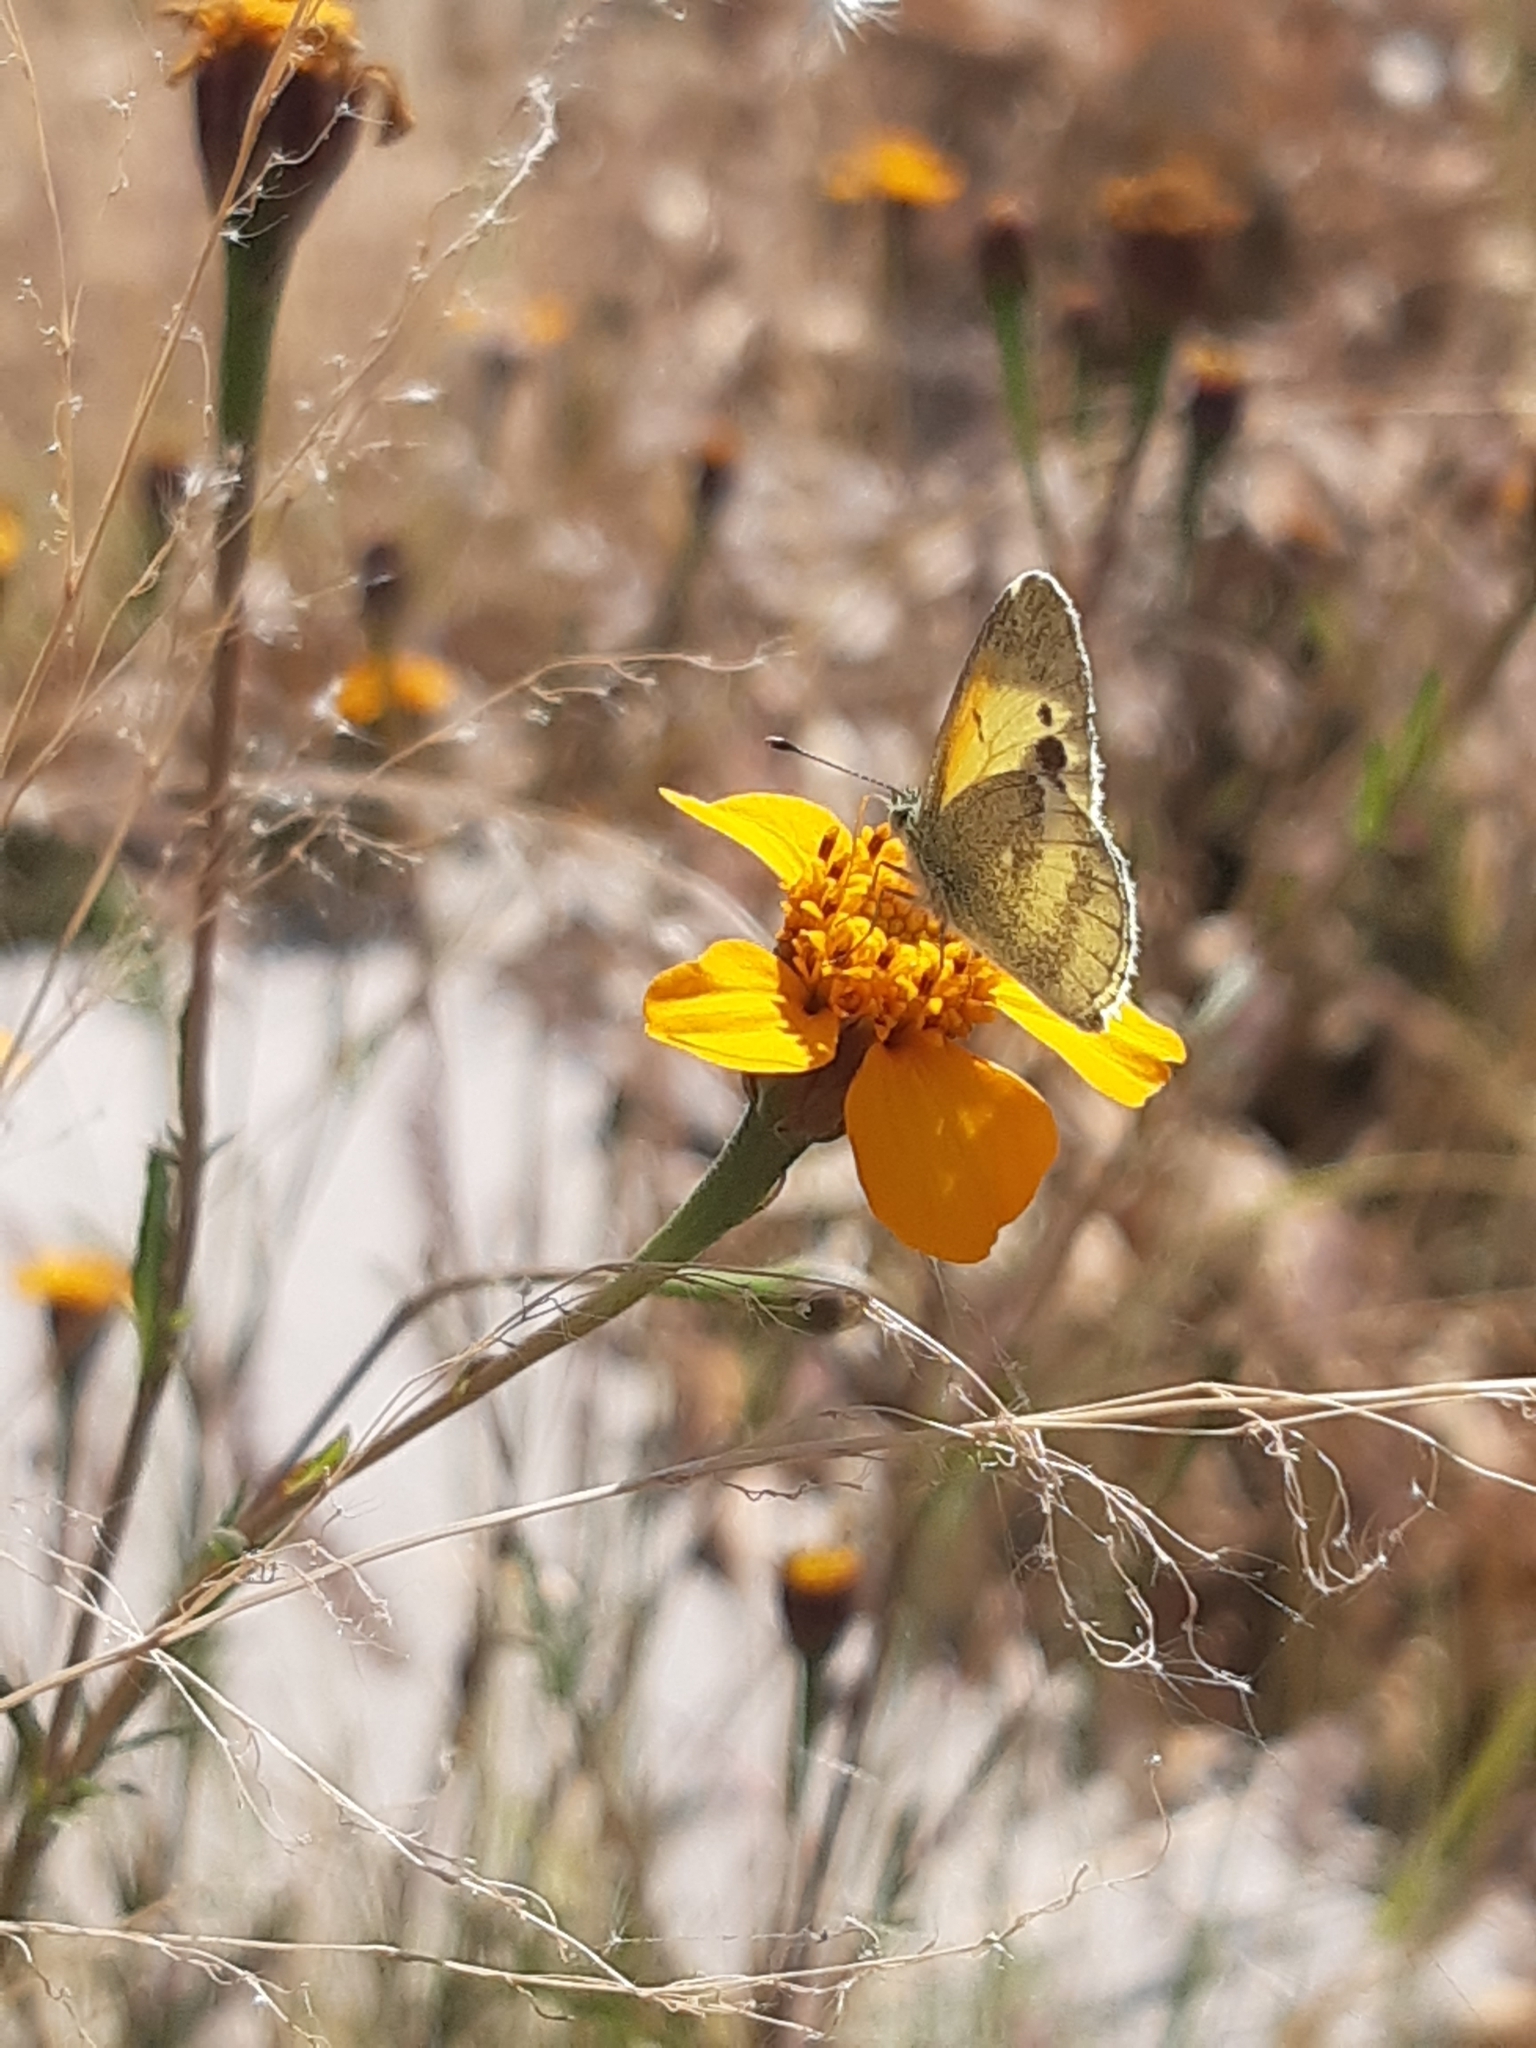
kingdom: Animalia
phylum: Arthropoda
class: Insecta
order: Lepidoptera
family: Pieridae
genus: Nathalis
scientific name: Nathalis iole
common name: Dainty sulphur
